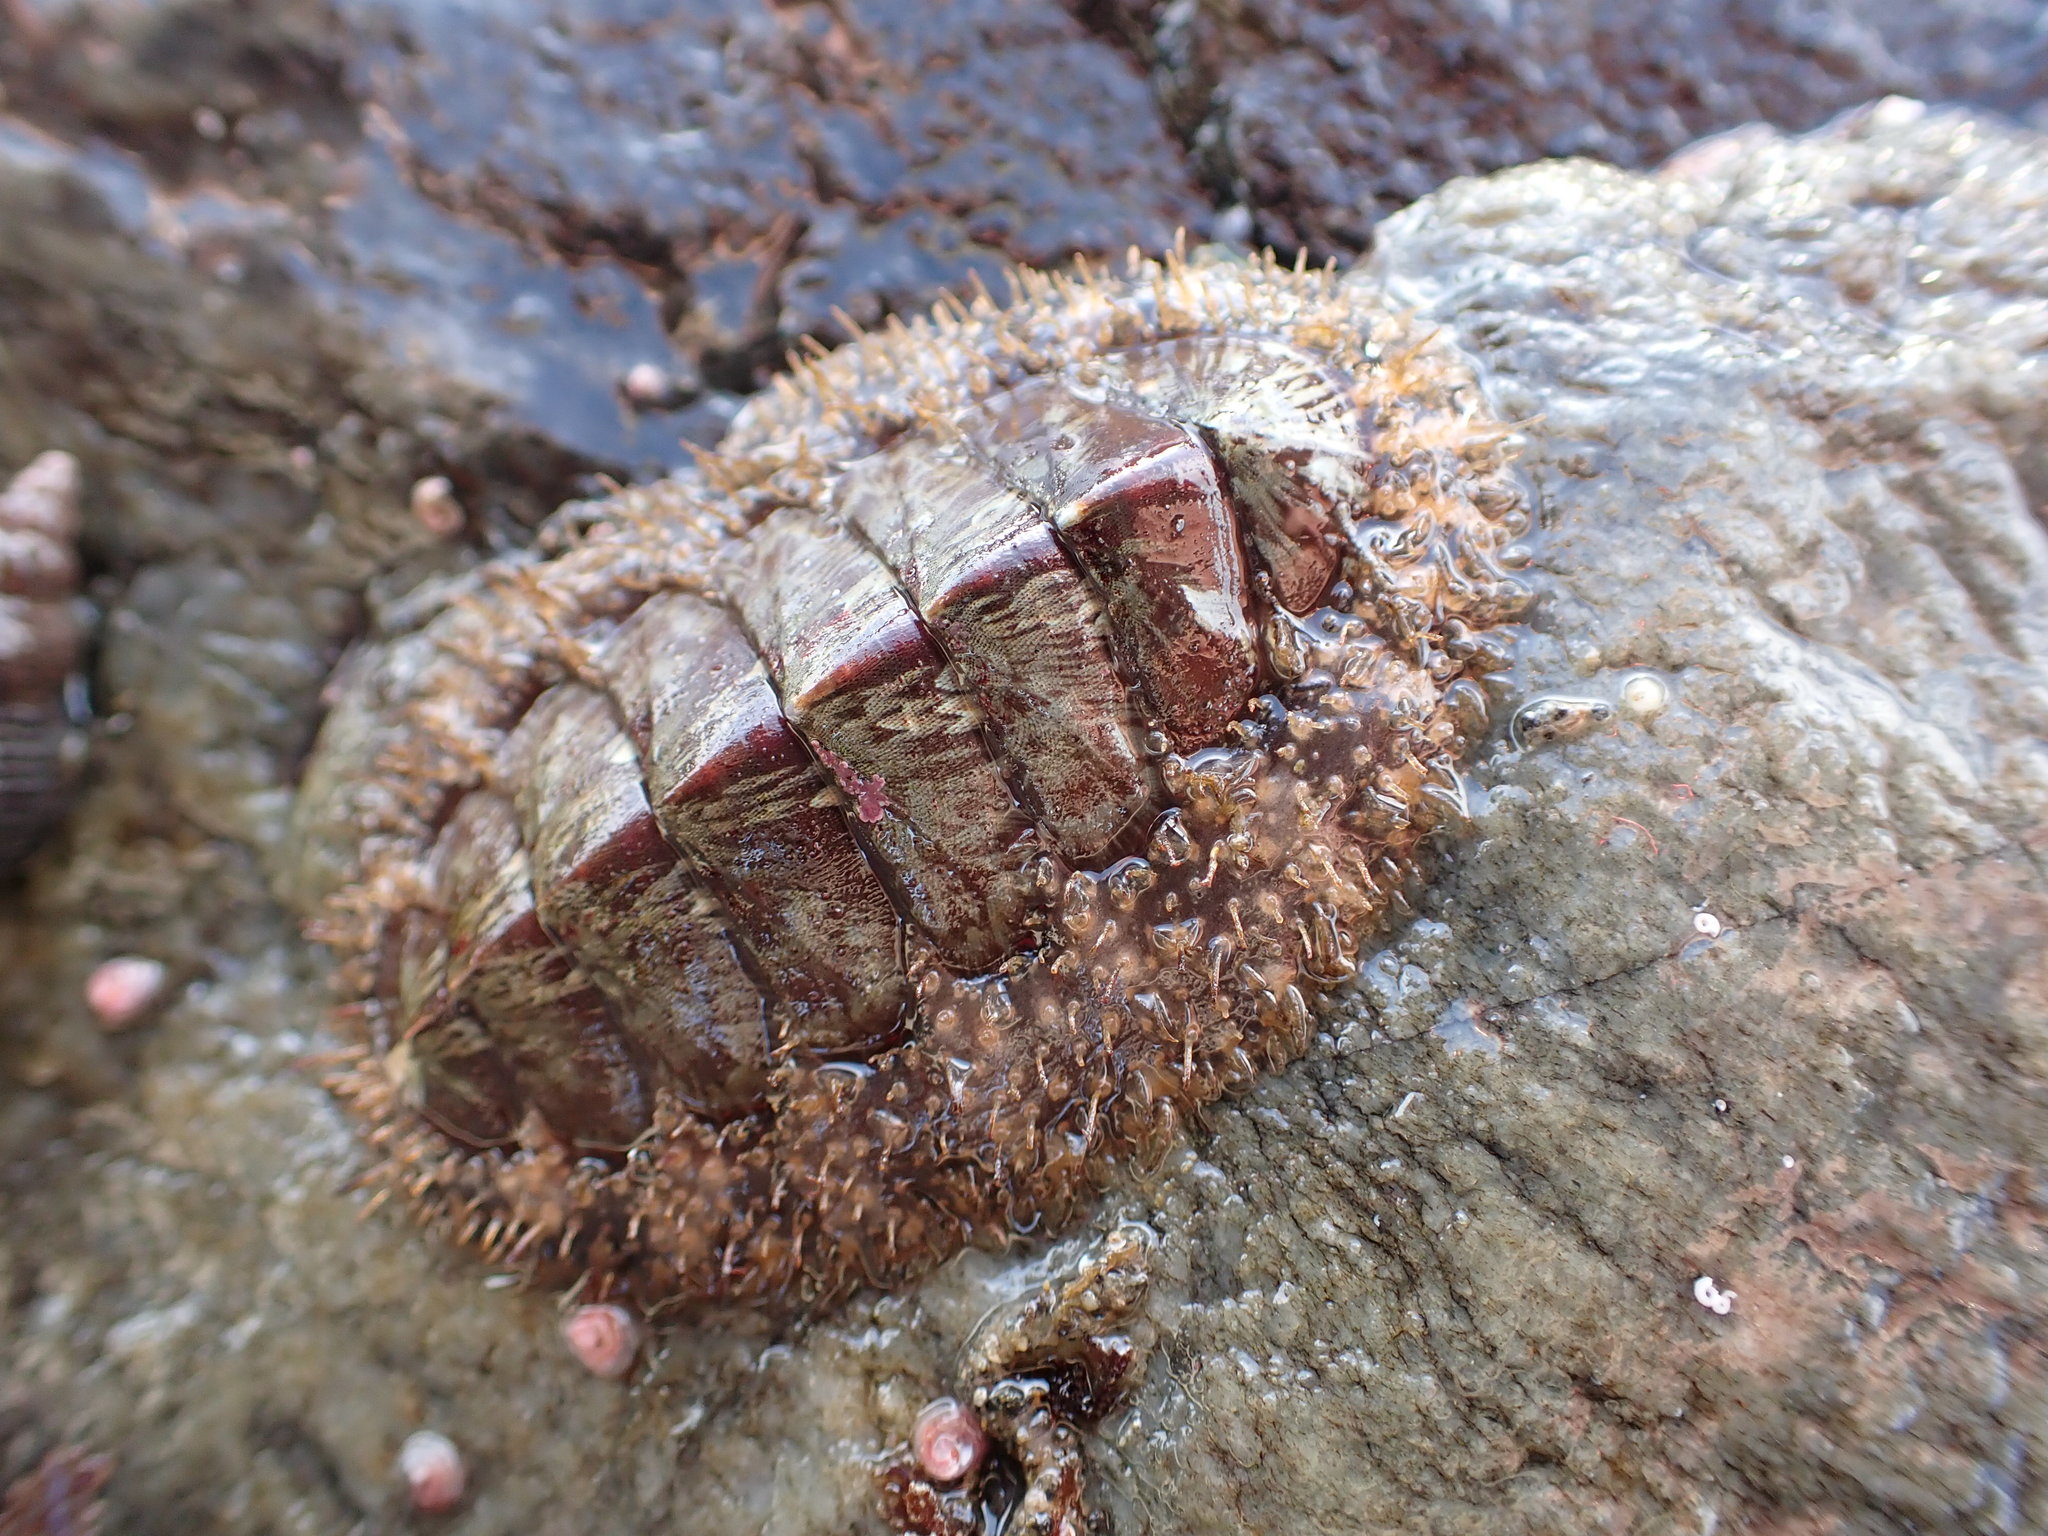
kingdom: Animalia
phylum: Mollusca
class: Polyplacophora
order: Chitonida
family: Mopaliidae
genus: Mopalia
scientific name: Mopalia lignosa
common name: Woody chiton
